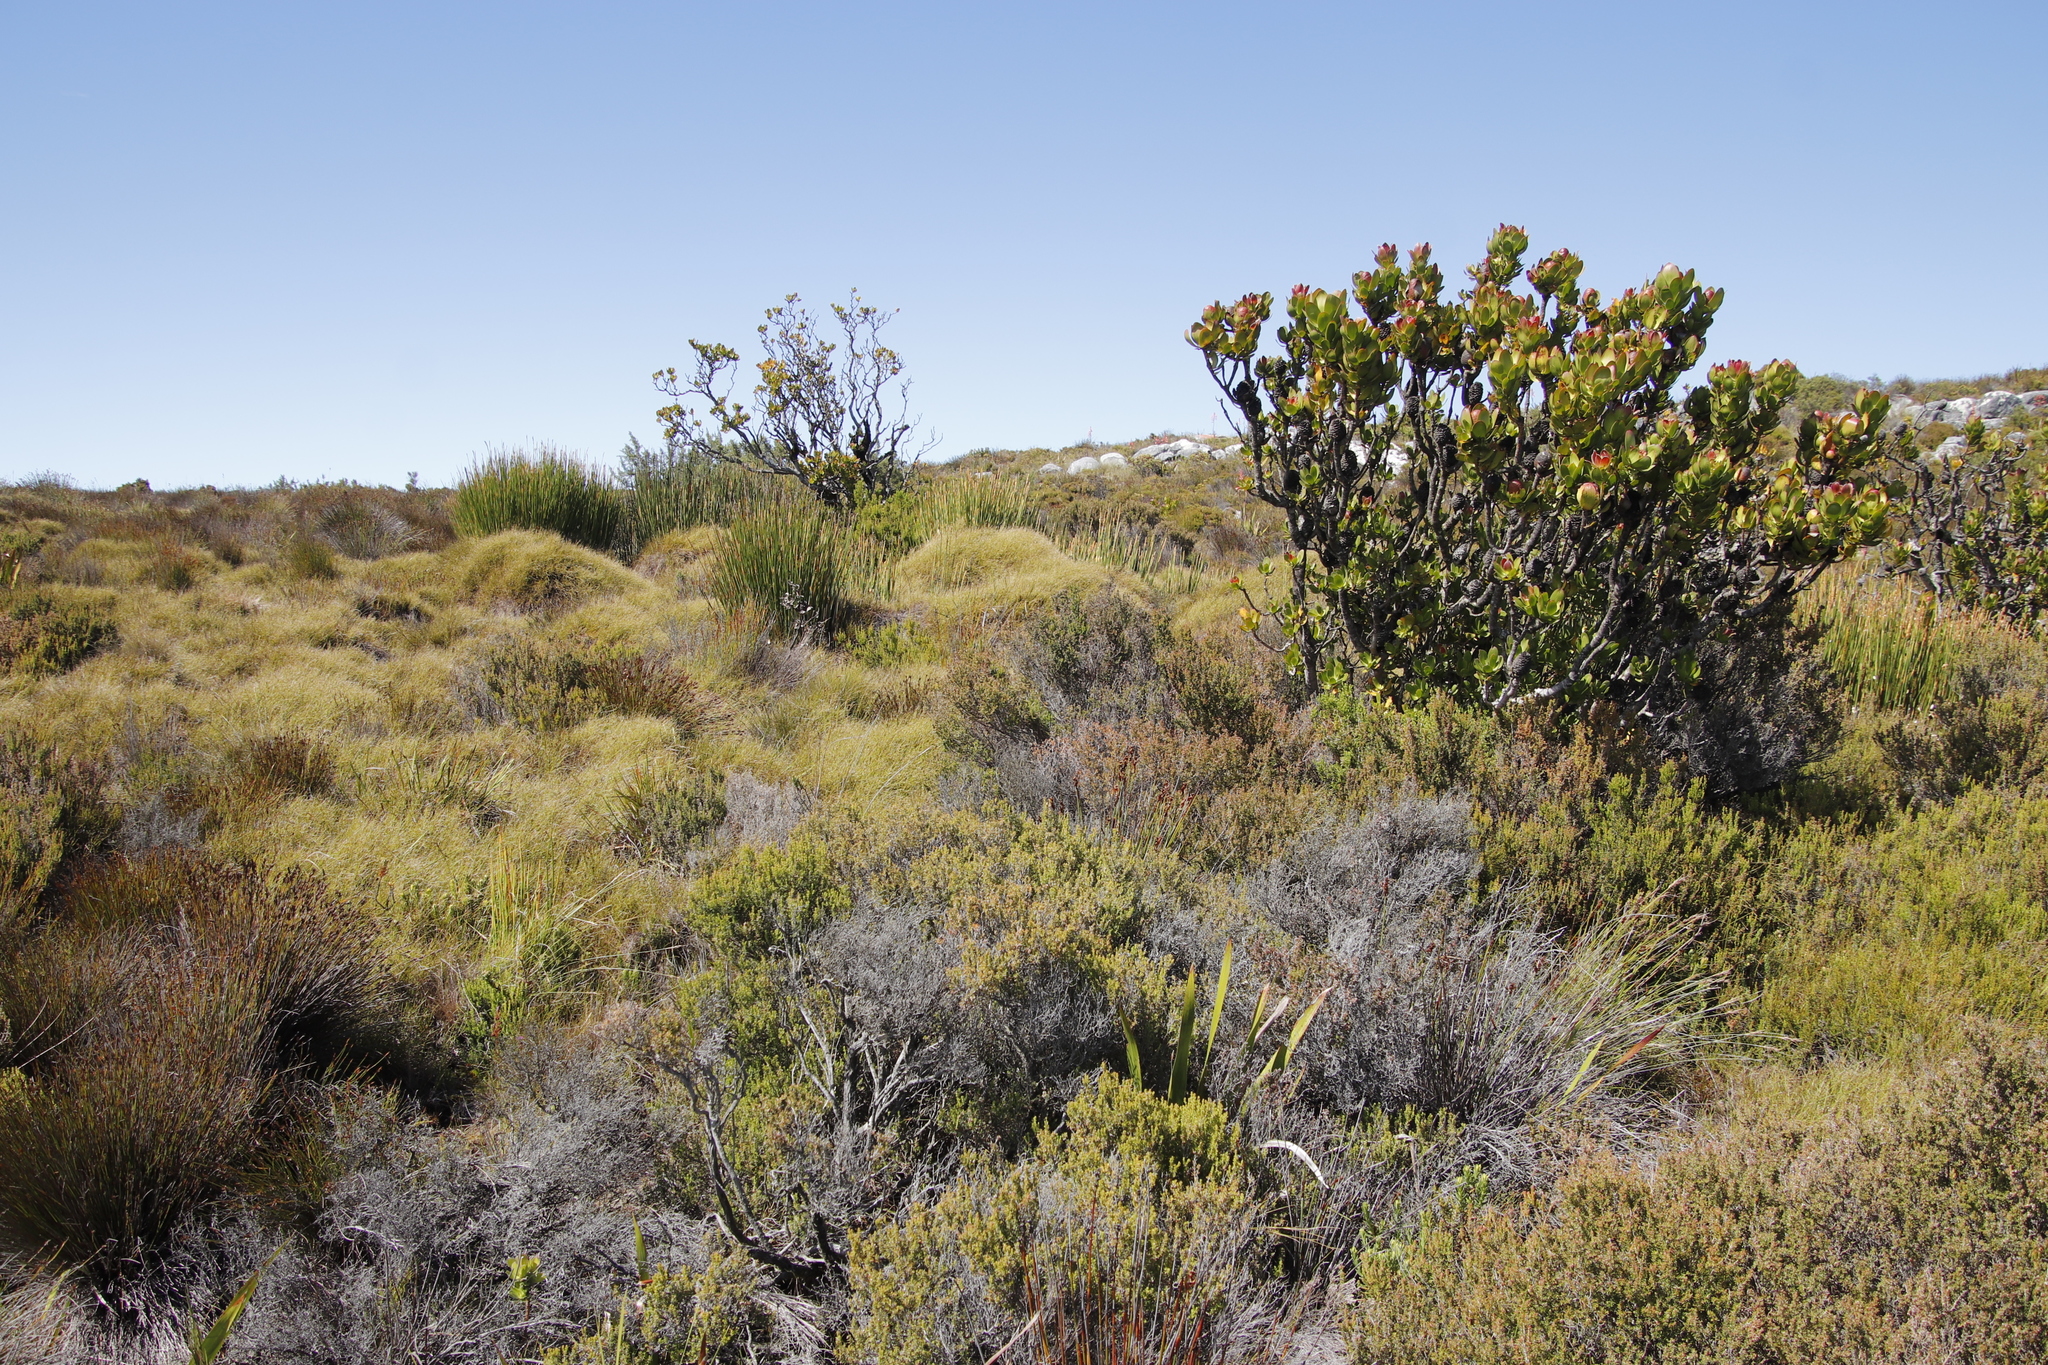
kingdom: Plantae
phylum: Tracheophyta
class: Magnoliopsida
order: Proteales
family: Proteaceae
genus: Leucadendron
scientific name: Leucadendron strobilinum
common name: Mountain rose
